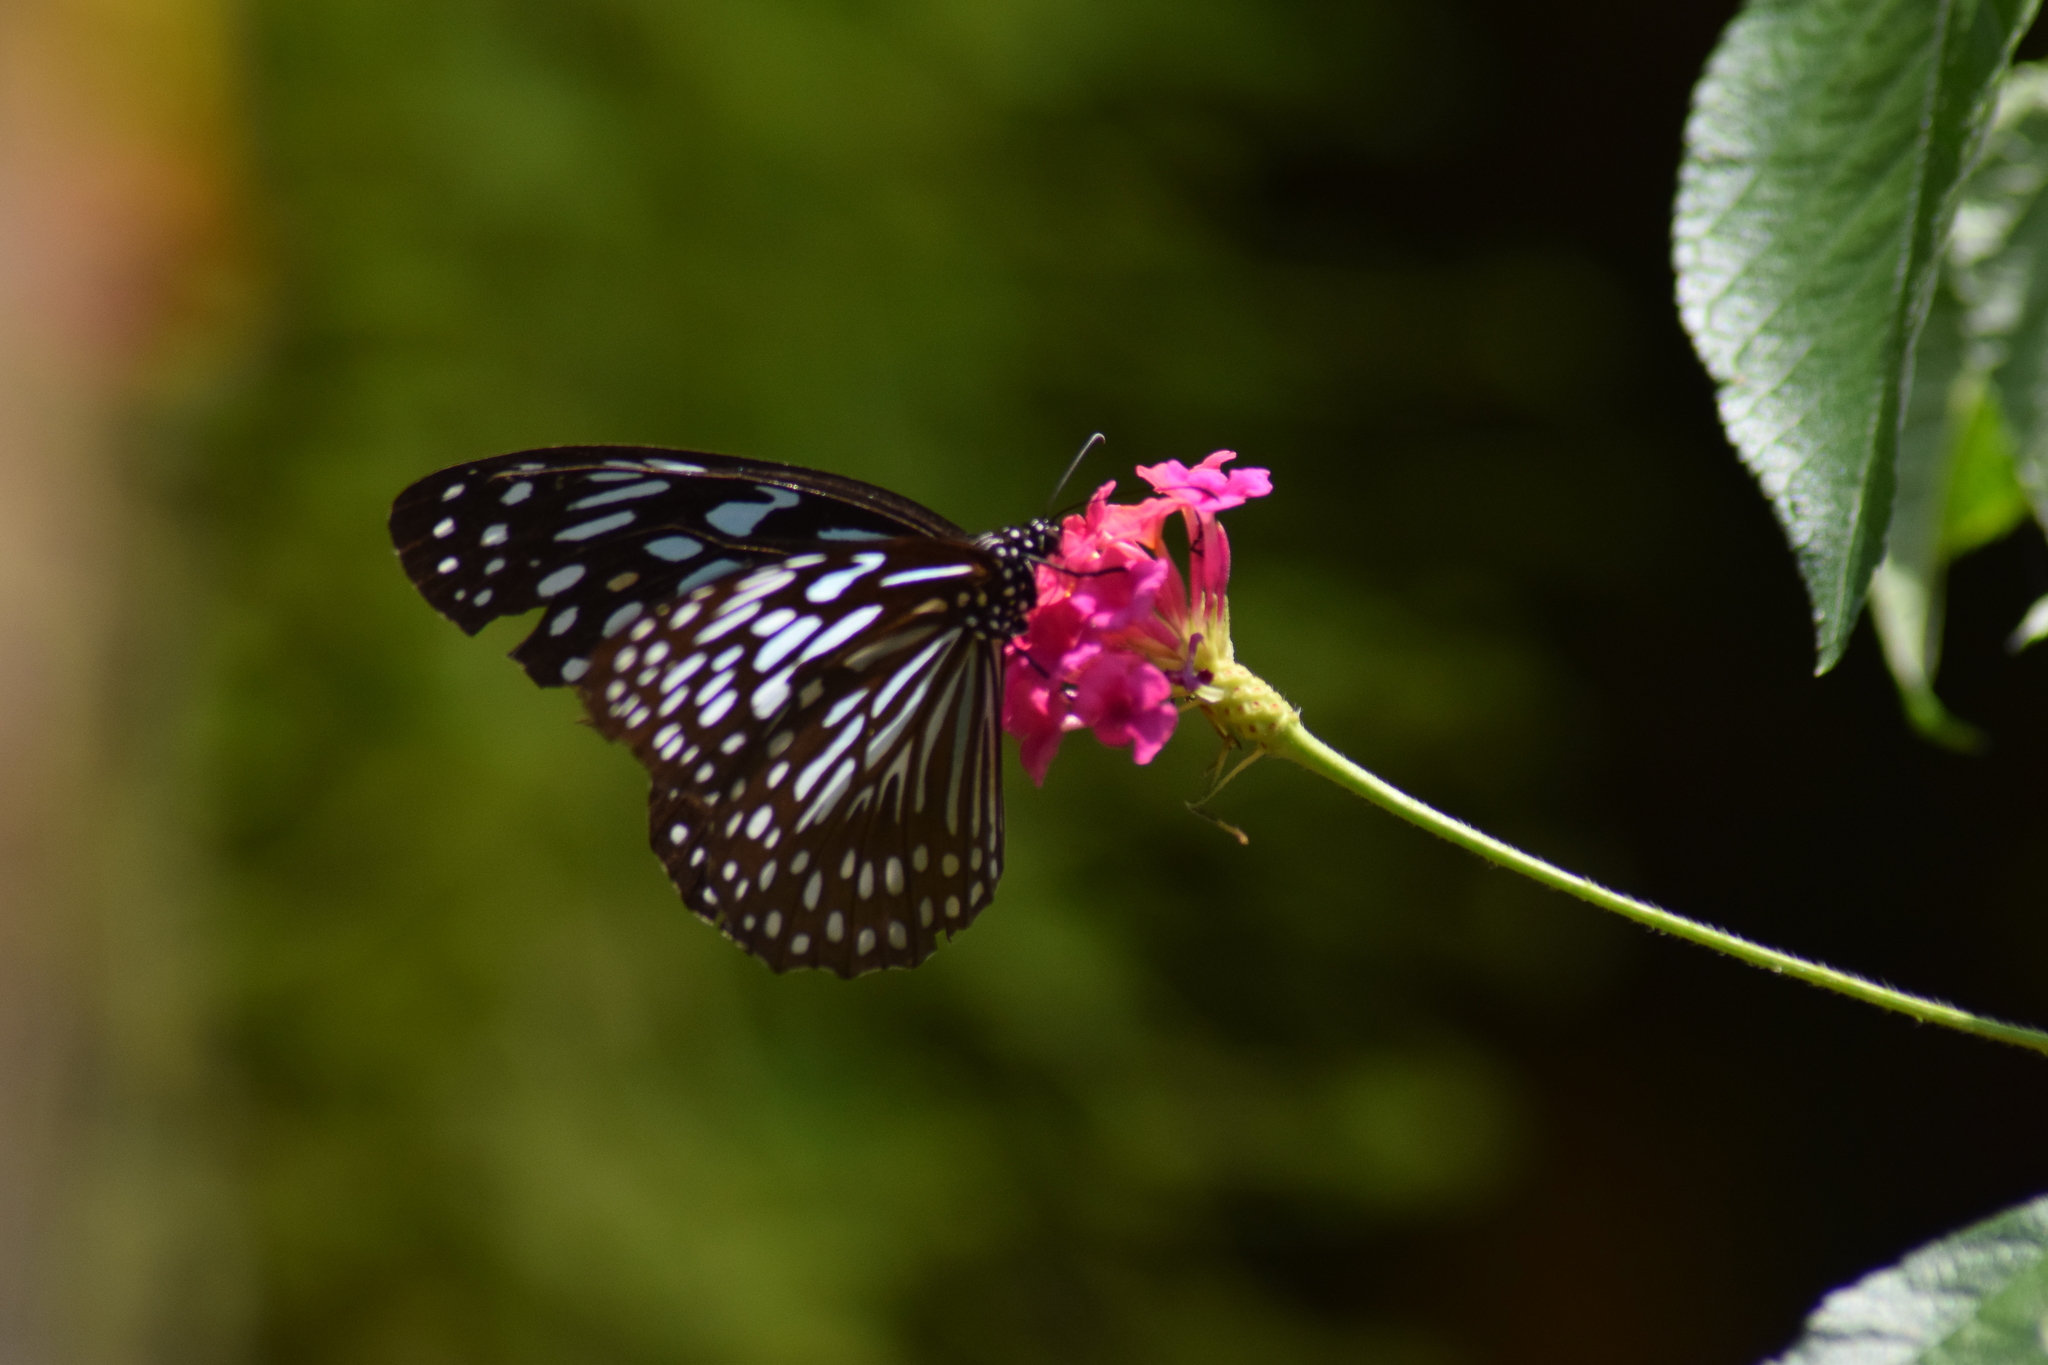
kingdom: Animalia
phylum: Arthropoda
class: Insecta
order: Lepidoptera
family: Nymphalidae
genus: Tirumala
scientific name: Tirumala septentrionis
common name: Dark blue tiger butterfly
